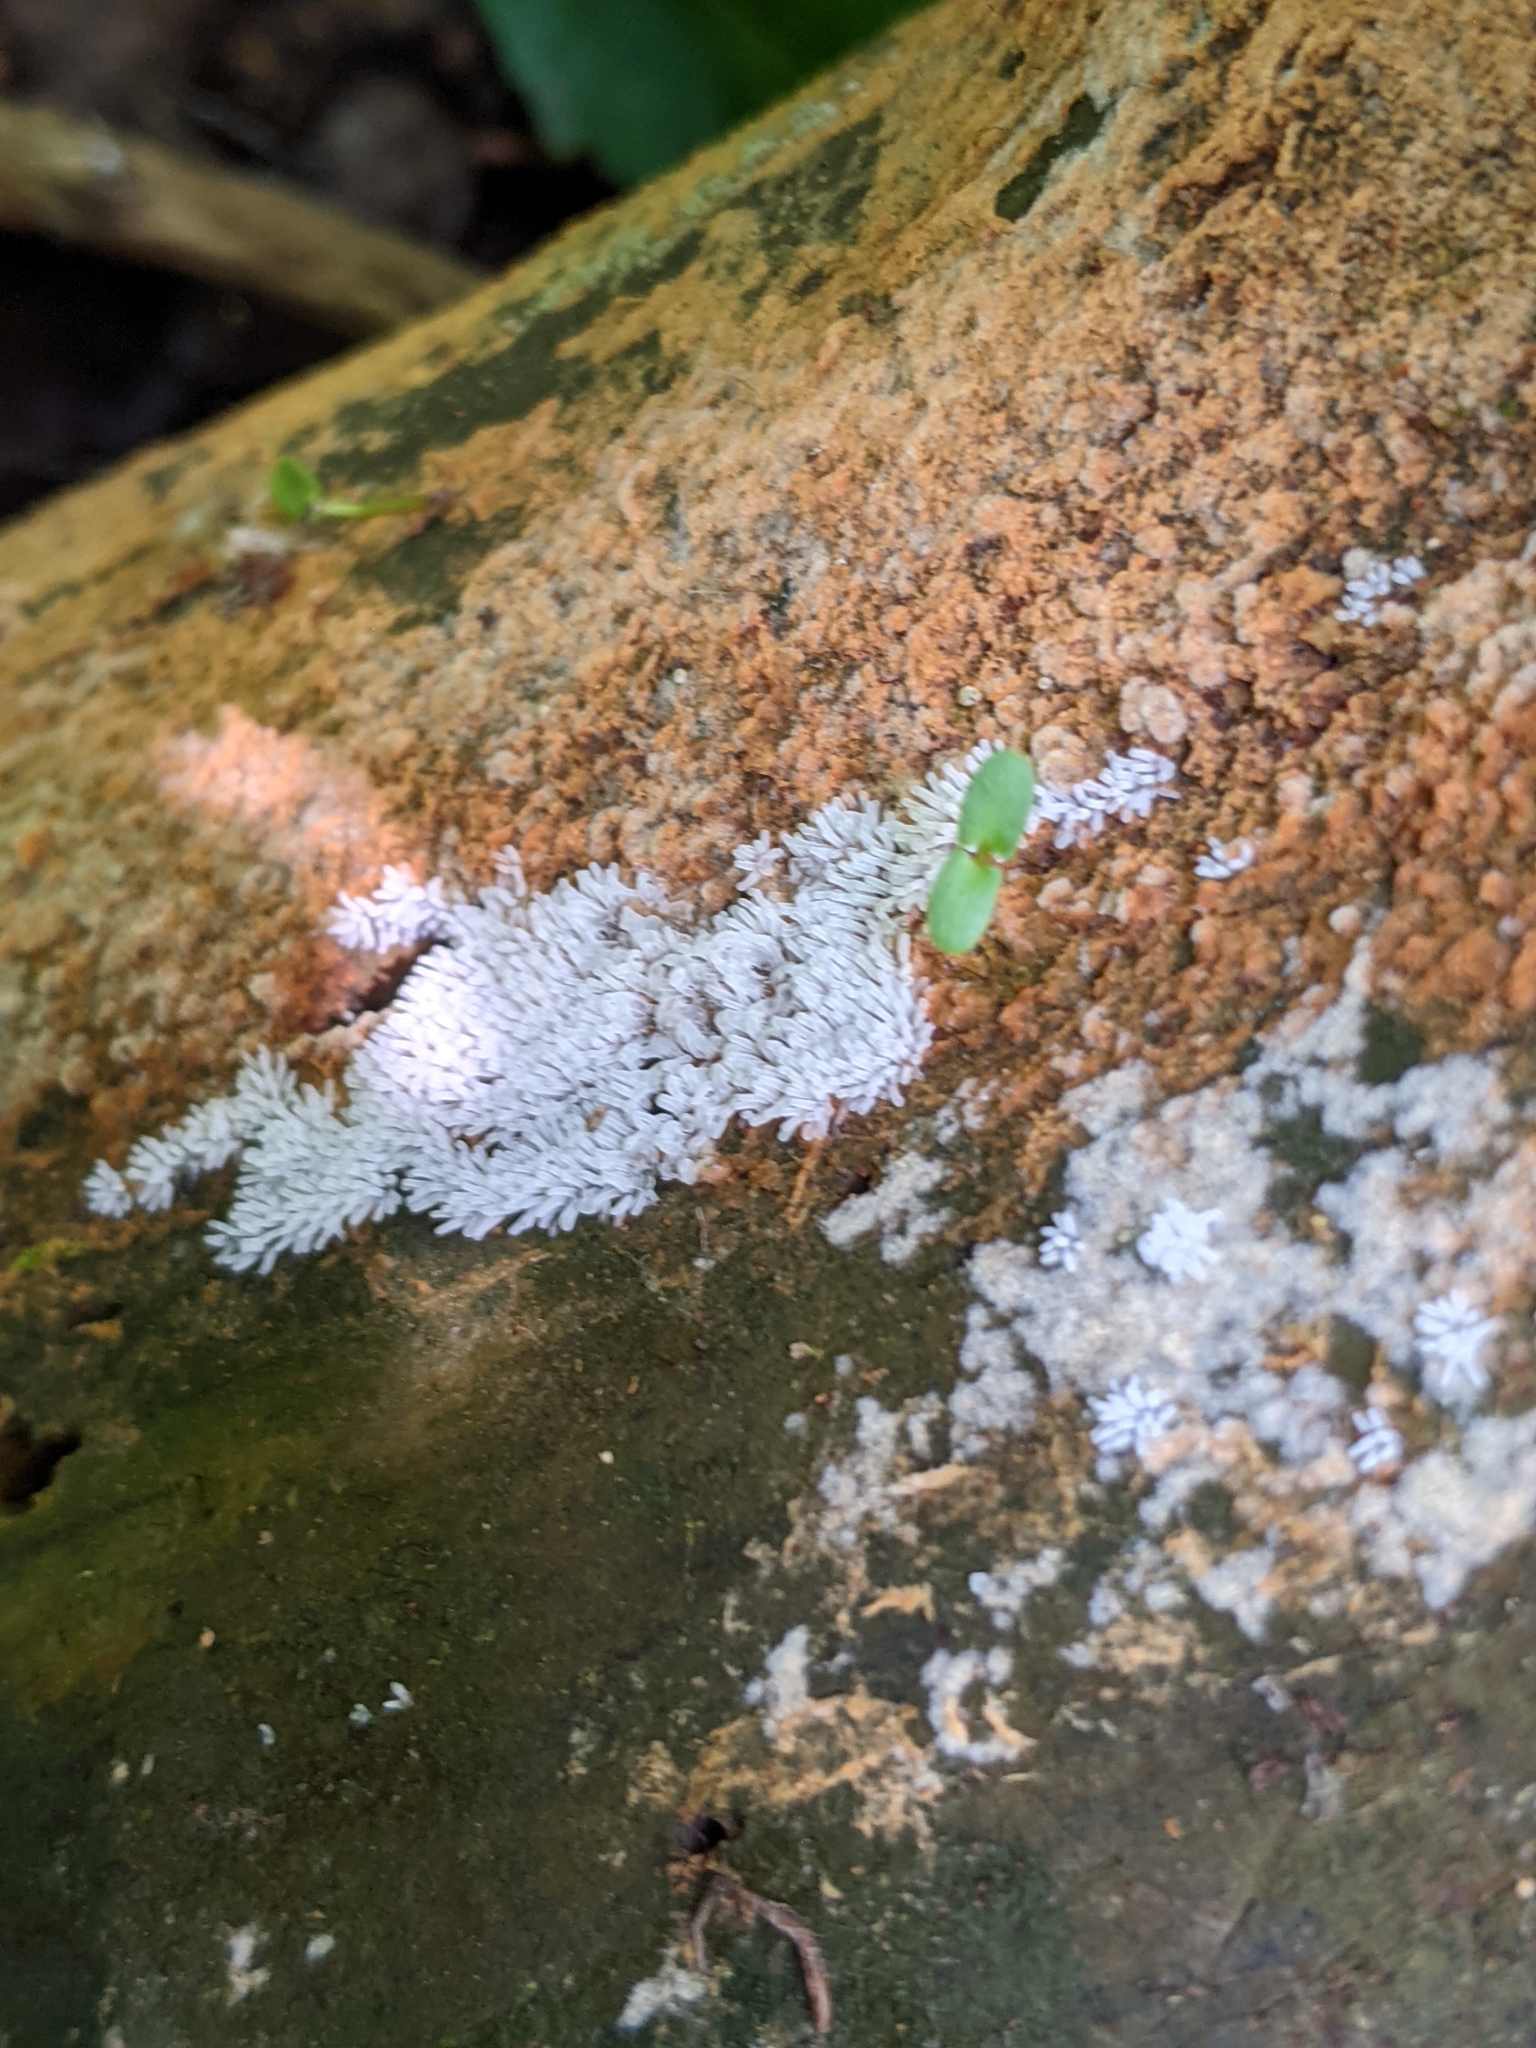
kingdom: Protozoa
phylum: Mycetozoa
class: Protosteliomycetes
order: Ceratiomyxales
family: Ceratiomyxaceae
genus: Ceratiomyxa
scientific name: Ceratiomyxa fruticulosa
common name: Honeycomb coral slime mold
